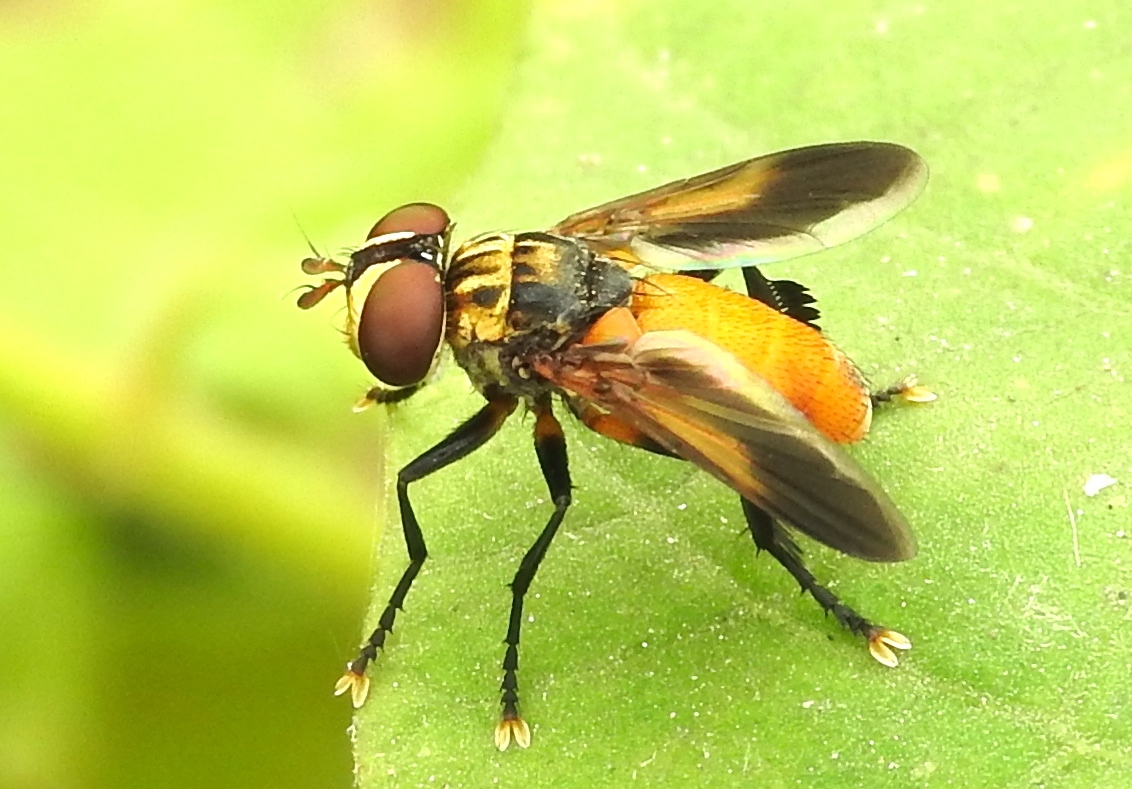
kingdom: Animalia
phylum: Arthropoda
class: Insecta
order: Diptera
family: Tachinidae
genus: Trichopoda
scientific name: Trichopoda
